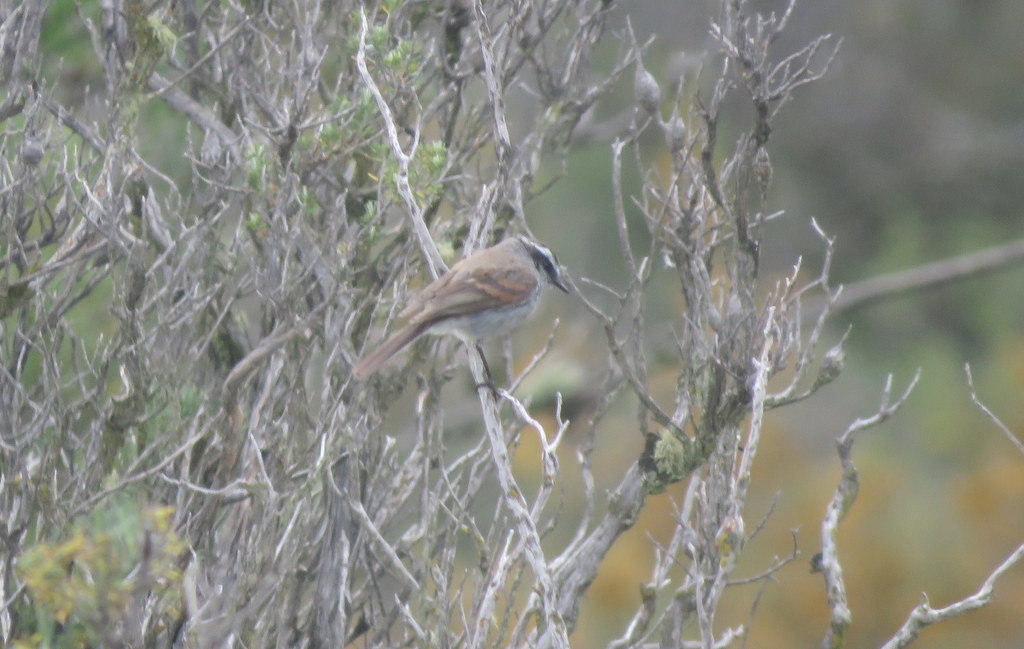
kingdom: Animalia
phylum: Chordata
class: Aves
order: Passeriformes
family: Tyrannidae
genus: Ochthoeca
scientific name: Ochthoeca leucophrys
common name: White-browed chat-tyrant
